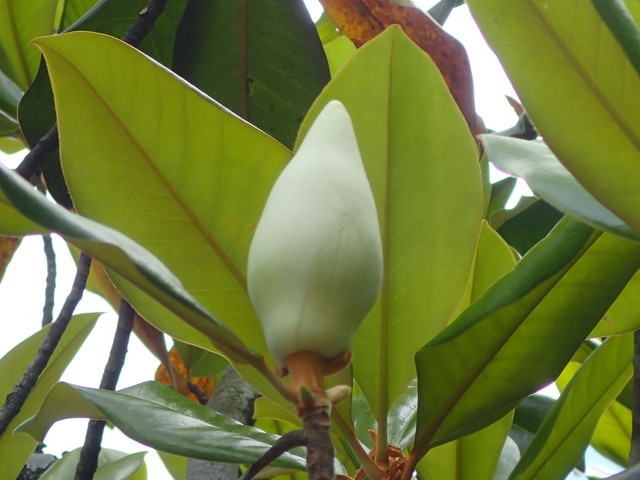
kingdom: Plantae
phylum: Tracheophyta
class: Magnoliopsida
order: Magnoliales
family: Magnoliaceae
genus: Magnolia
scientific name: Magnolia grandiflora
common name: Southern magnolia
